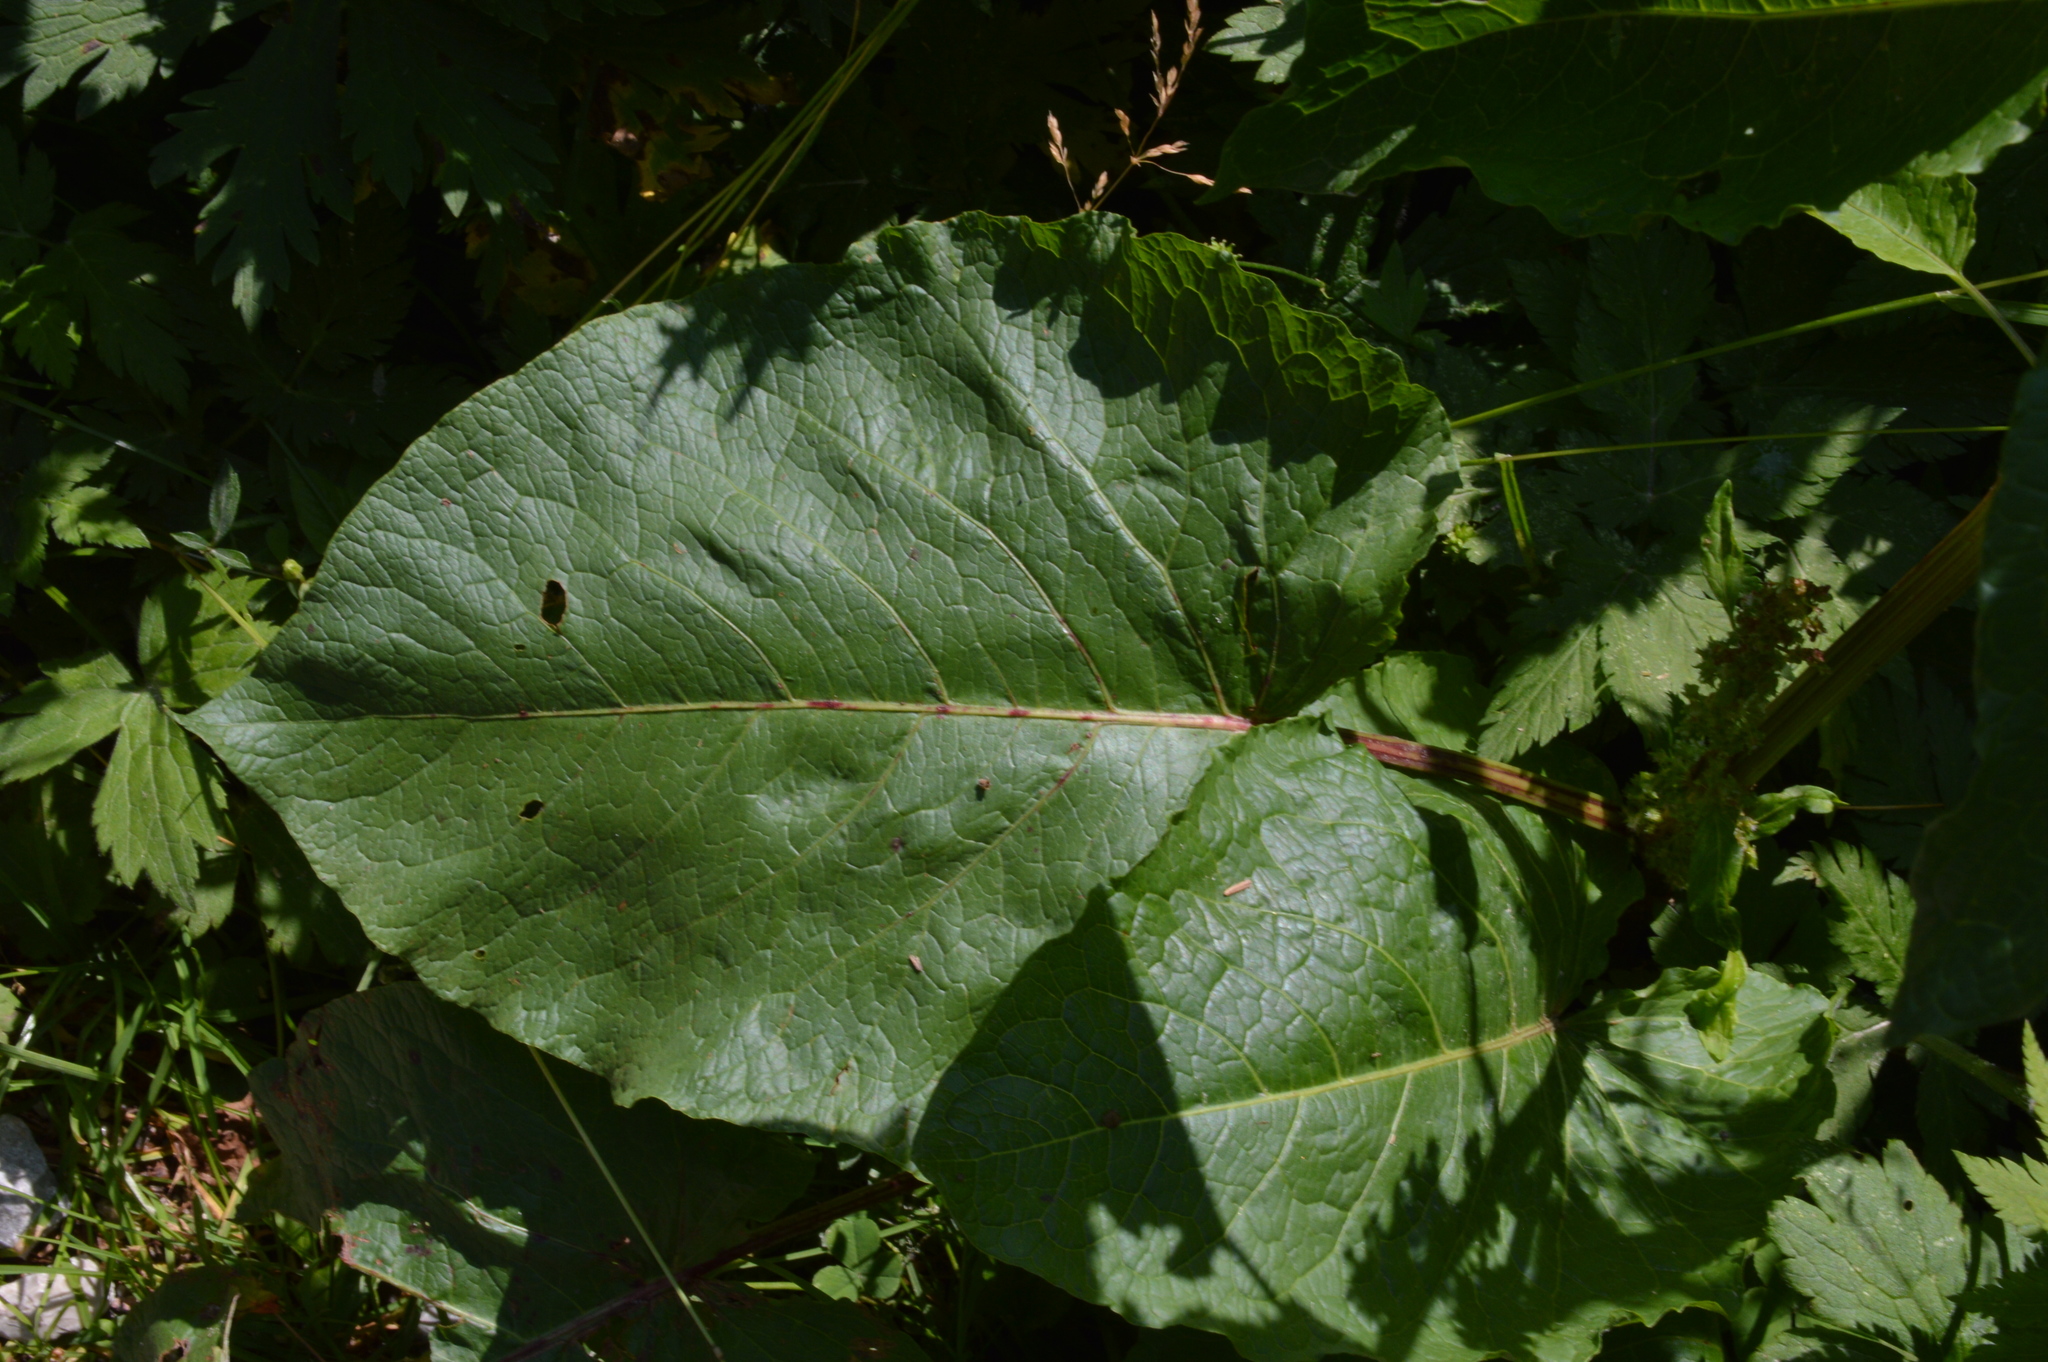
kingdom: Plantae
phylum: Tracheophyta
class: Magnoliopsida
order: Caryophyllales
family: Polygonaceae
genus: Rumex
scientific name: Rumex alpinus
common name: Alpine dock
